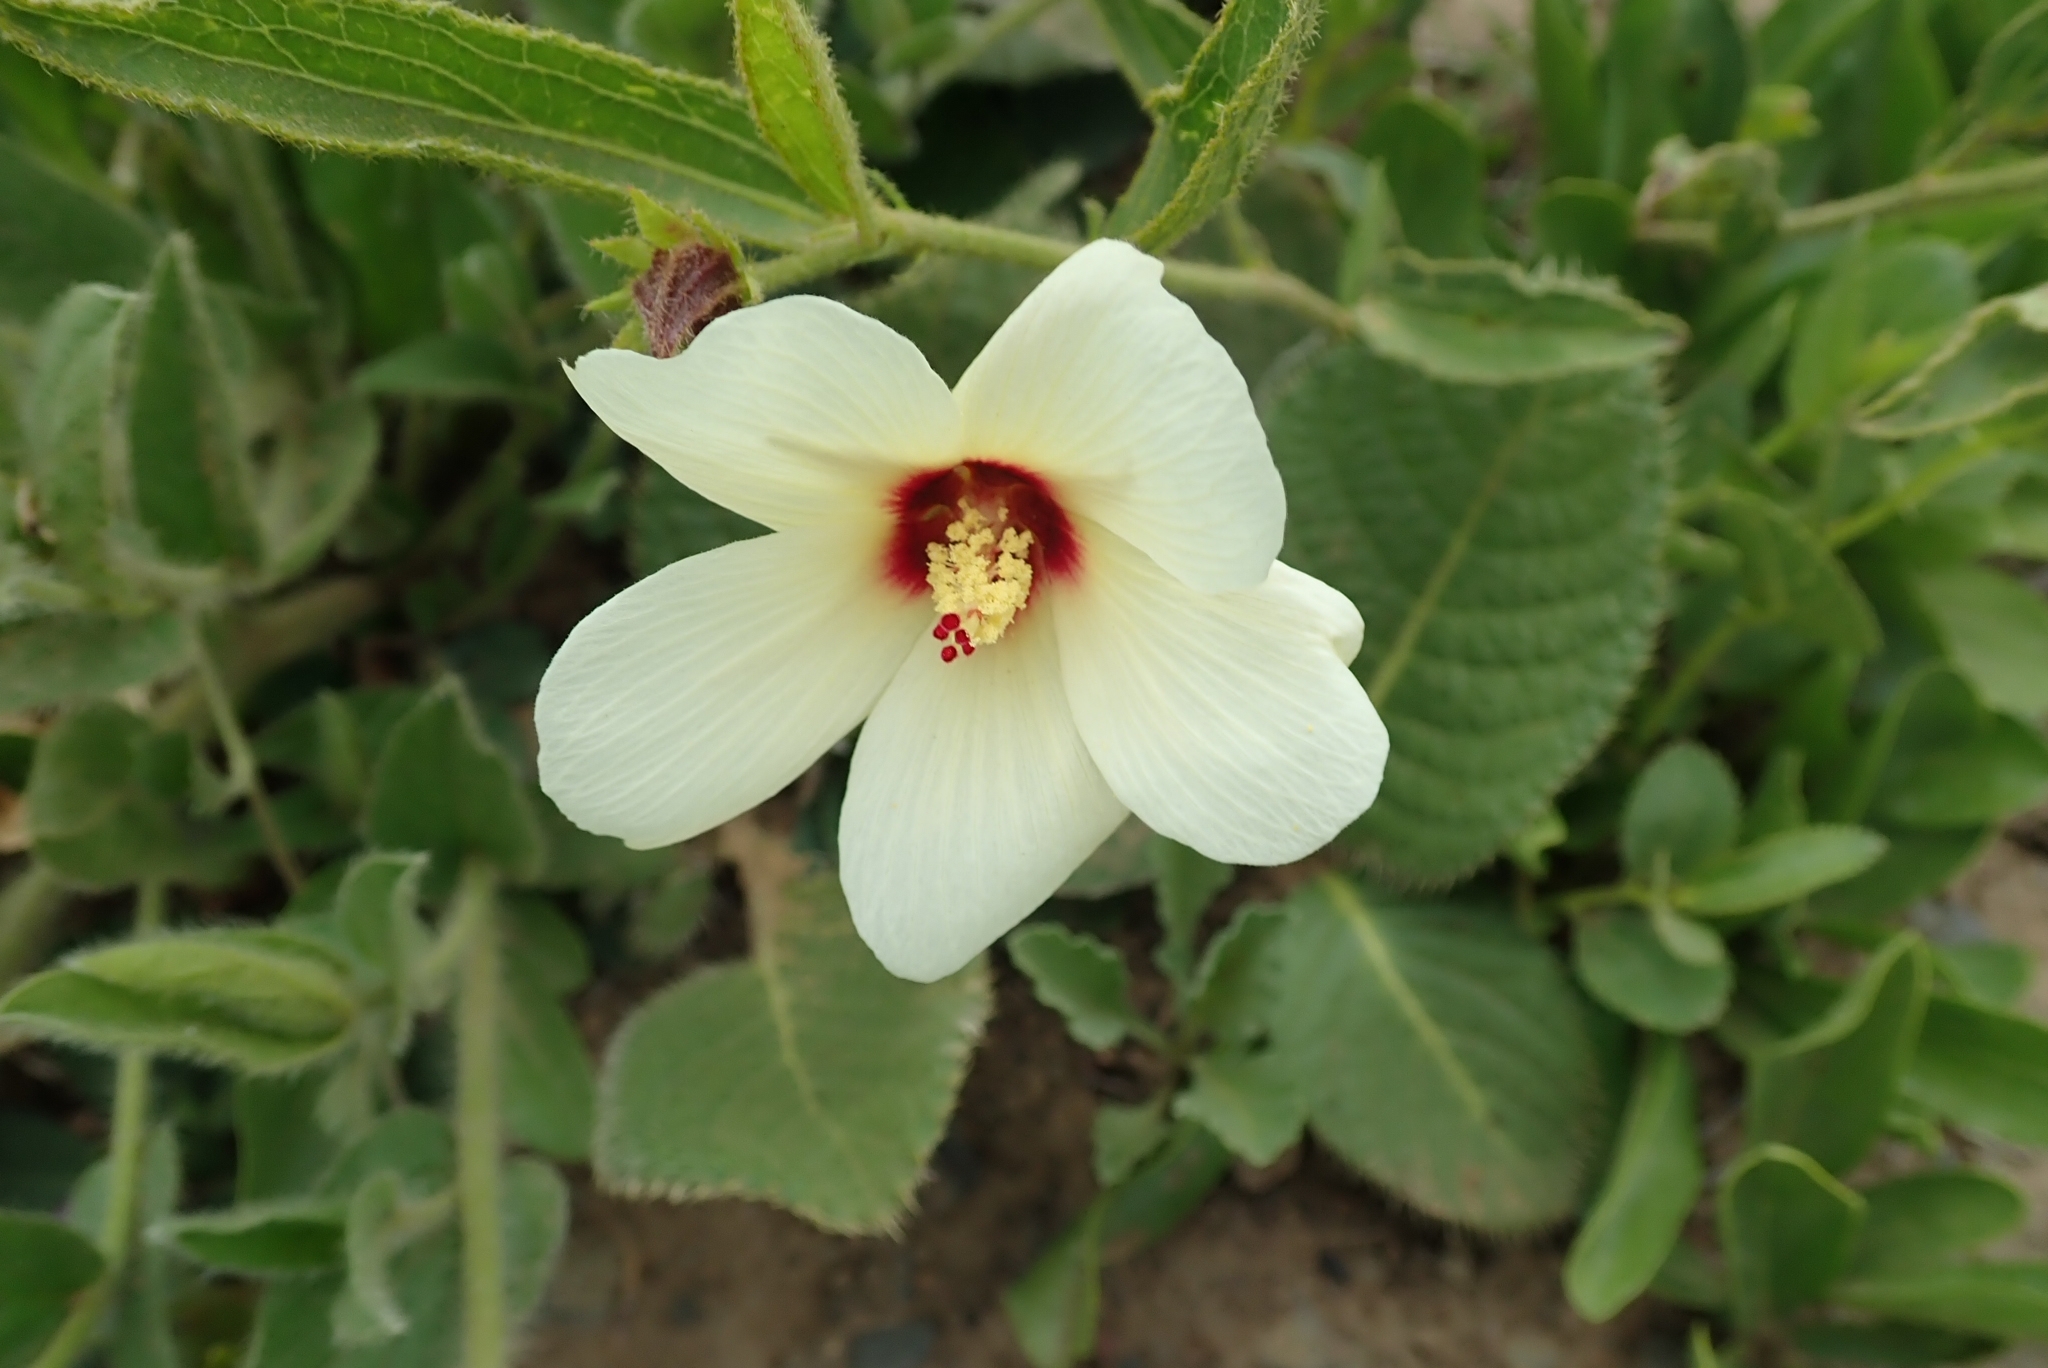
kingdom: Plantae
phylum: Tracheophyta
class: Magnoliopsida
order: Malvales
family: Malvaceae
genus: Hibiscus
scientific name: Hibiscus aethiopicus
